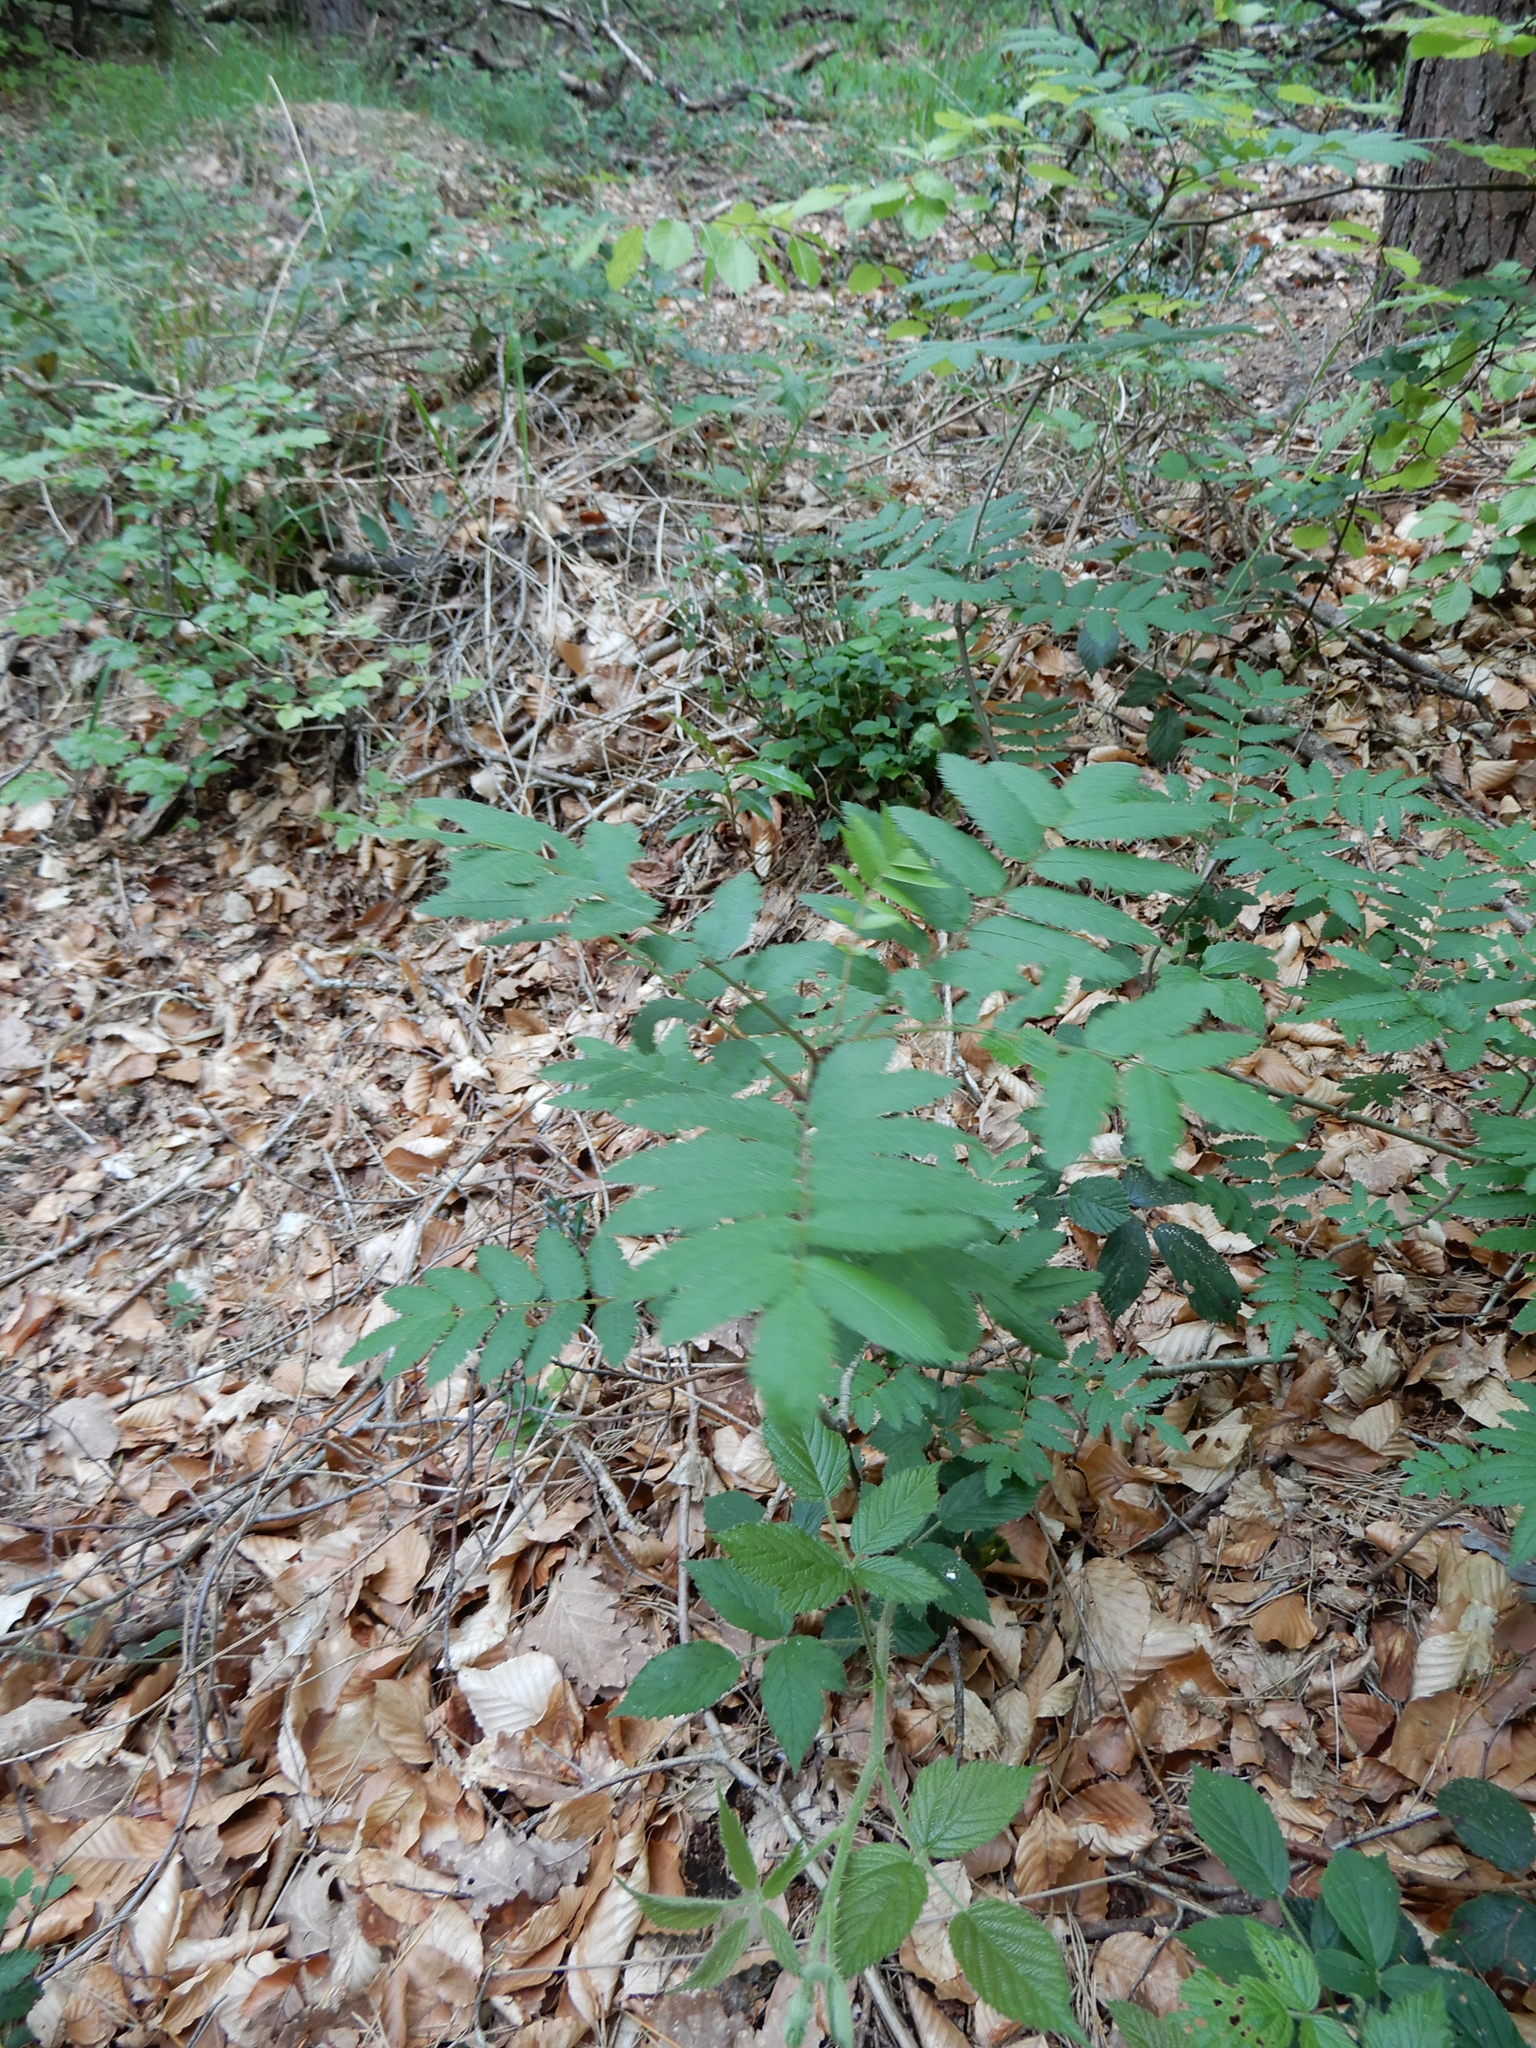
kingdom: Plantae
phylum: Tracheophyta
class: Magnoliopsida
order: Rosales
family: Rosaceae
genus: Sorbus
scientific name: Sorbus aucuparia
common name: Rowan
